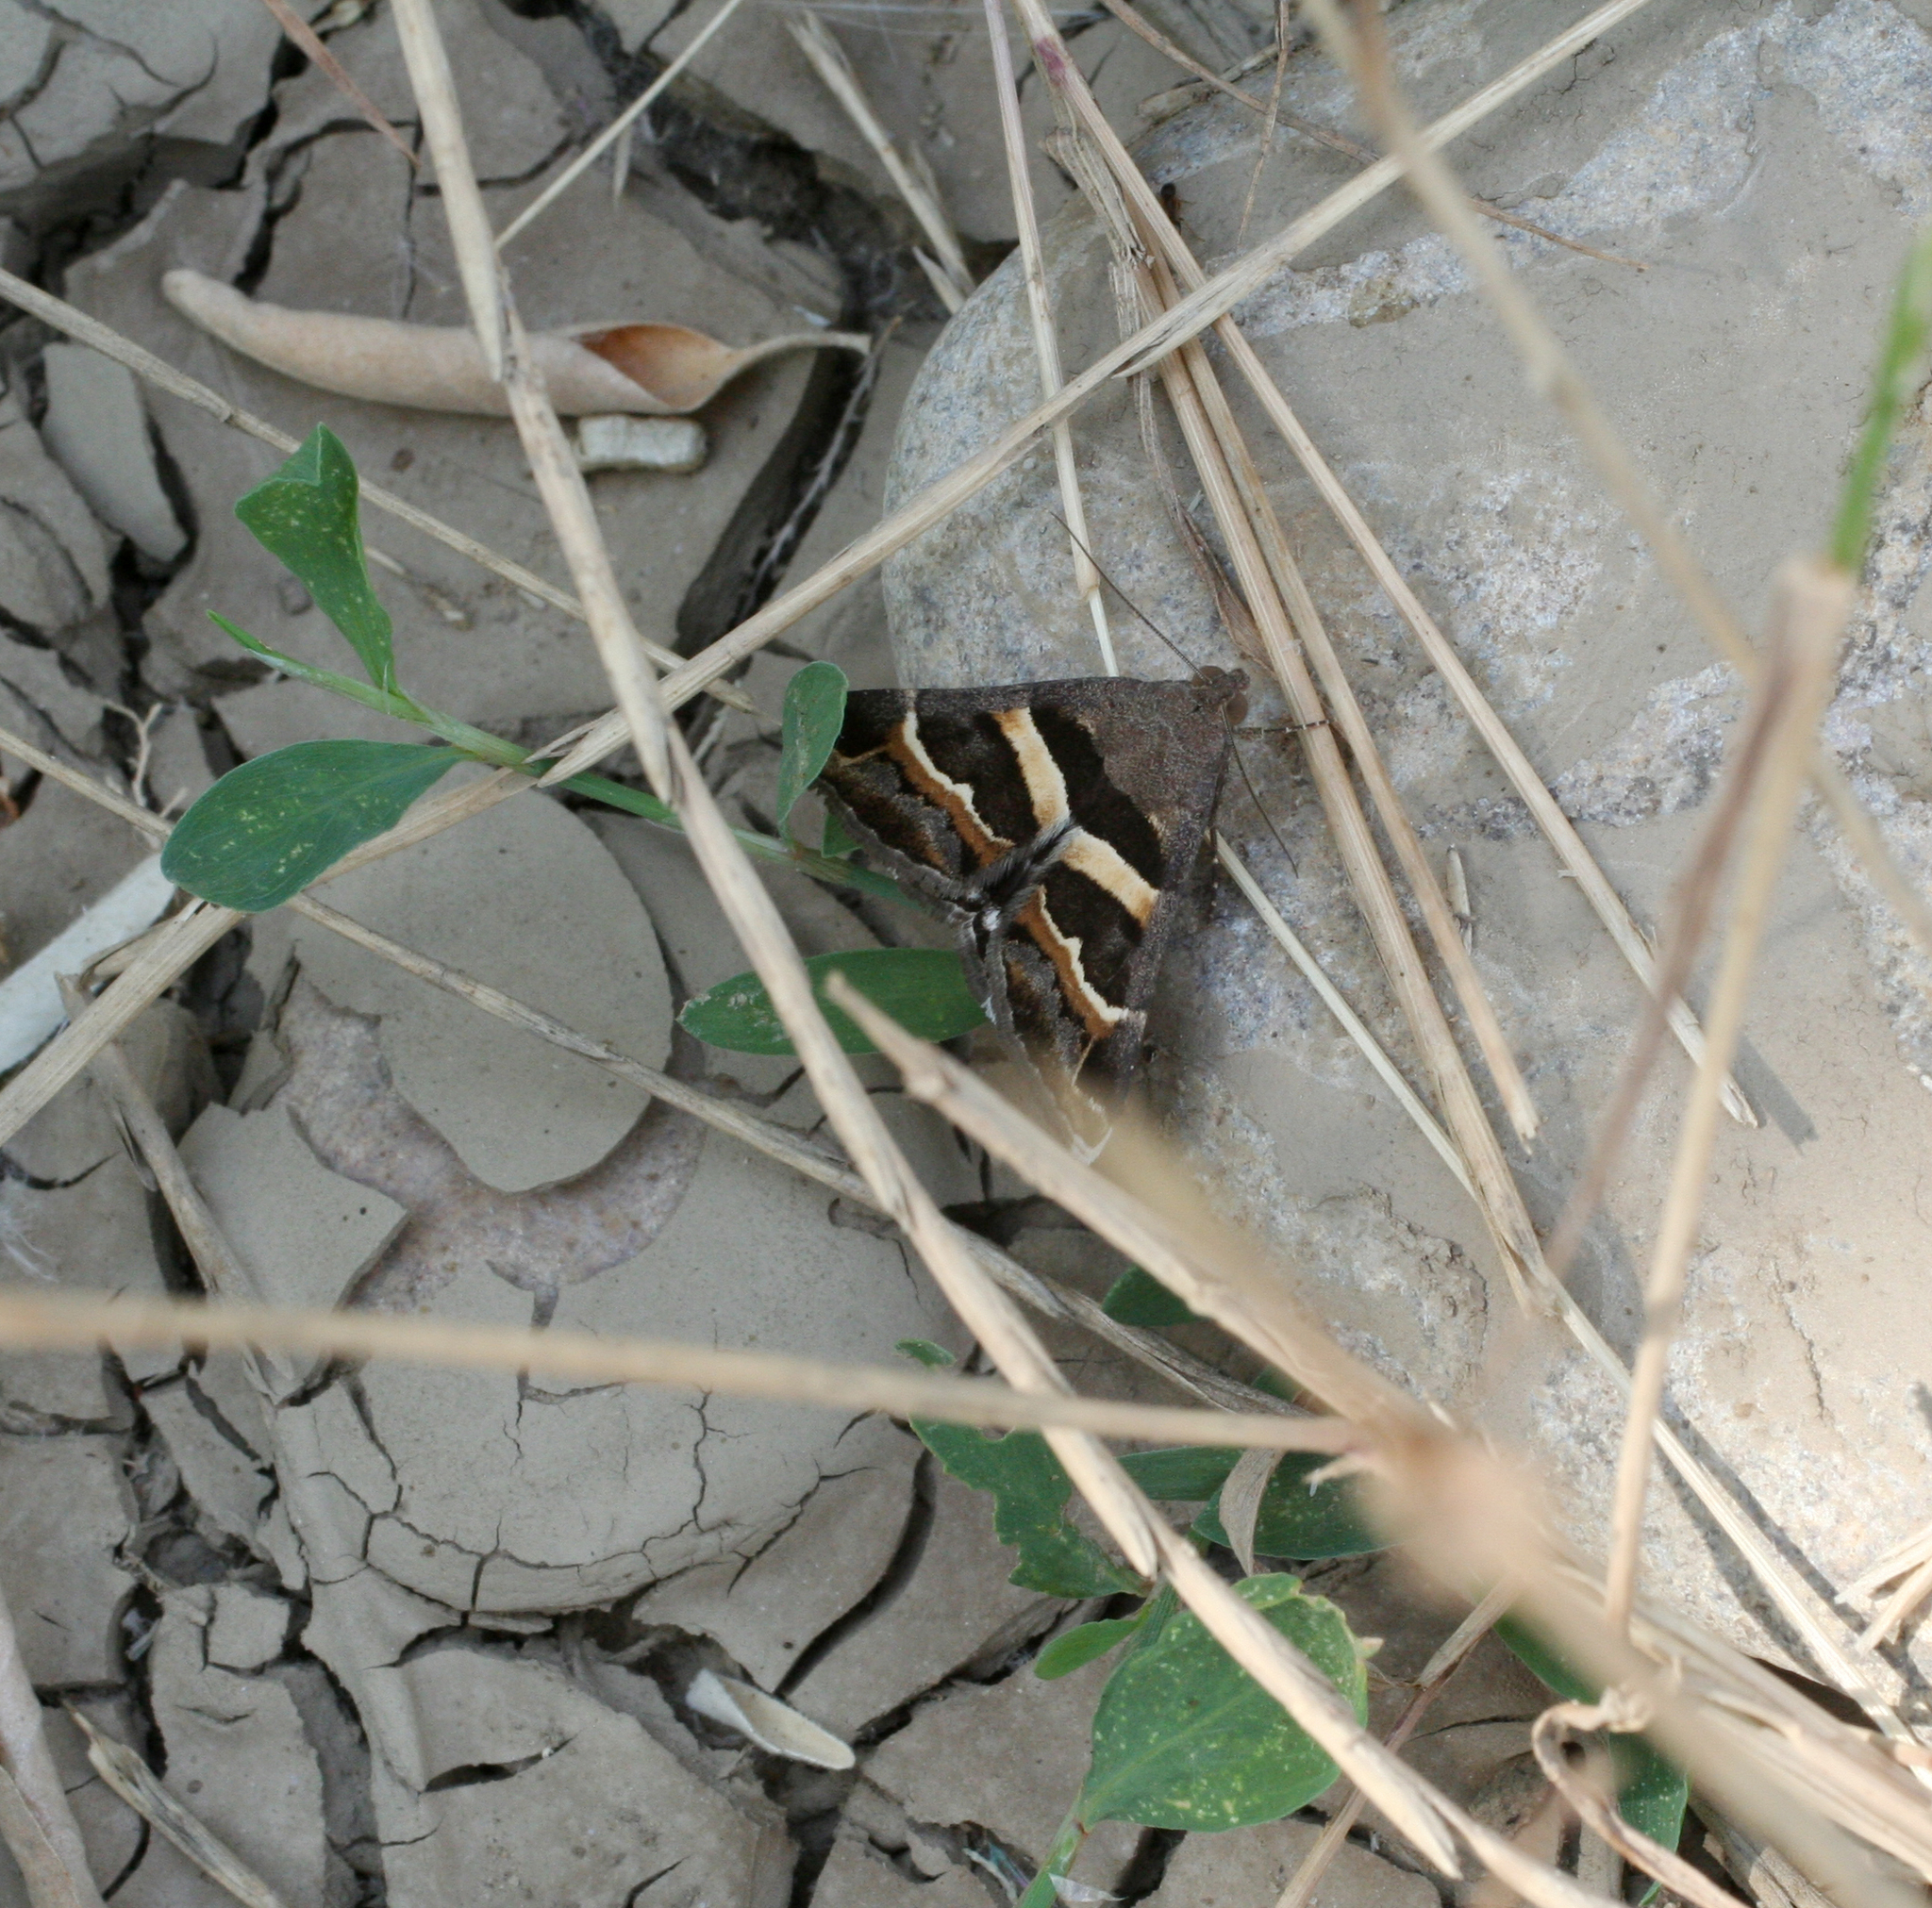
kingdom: Animalia
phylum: Arthropoda
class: Insecta
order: Lepidoptera
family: Erebidae
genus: Grammodes
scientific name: Grammodes stolida
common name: Geometrician
